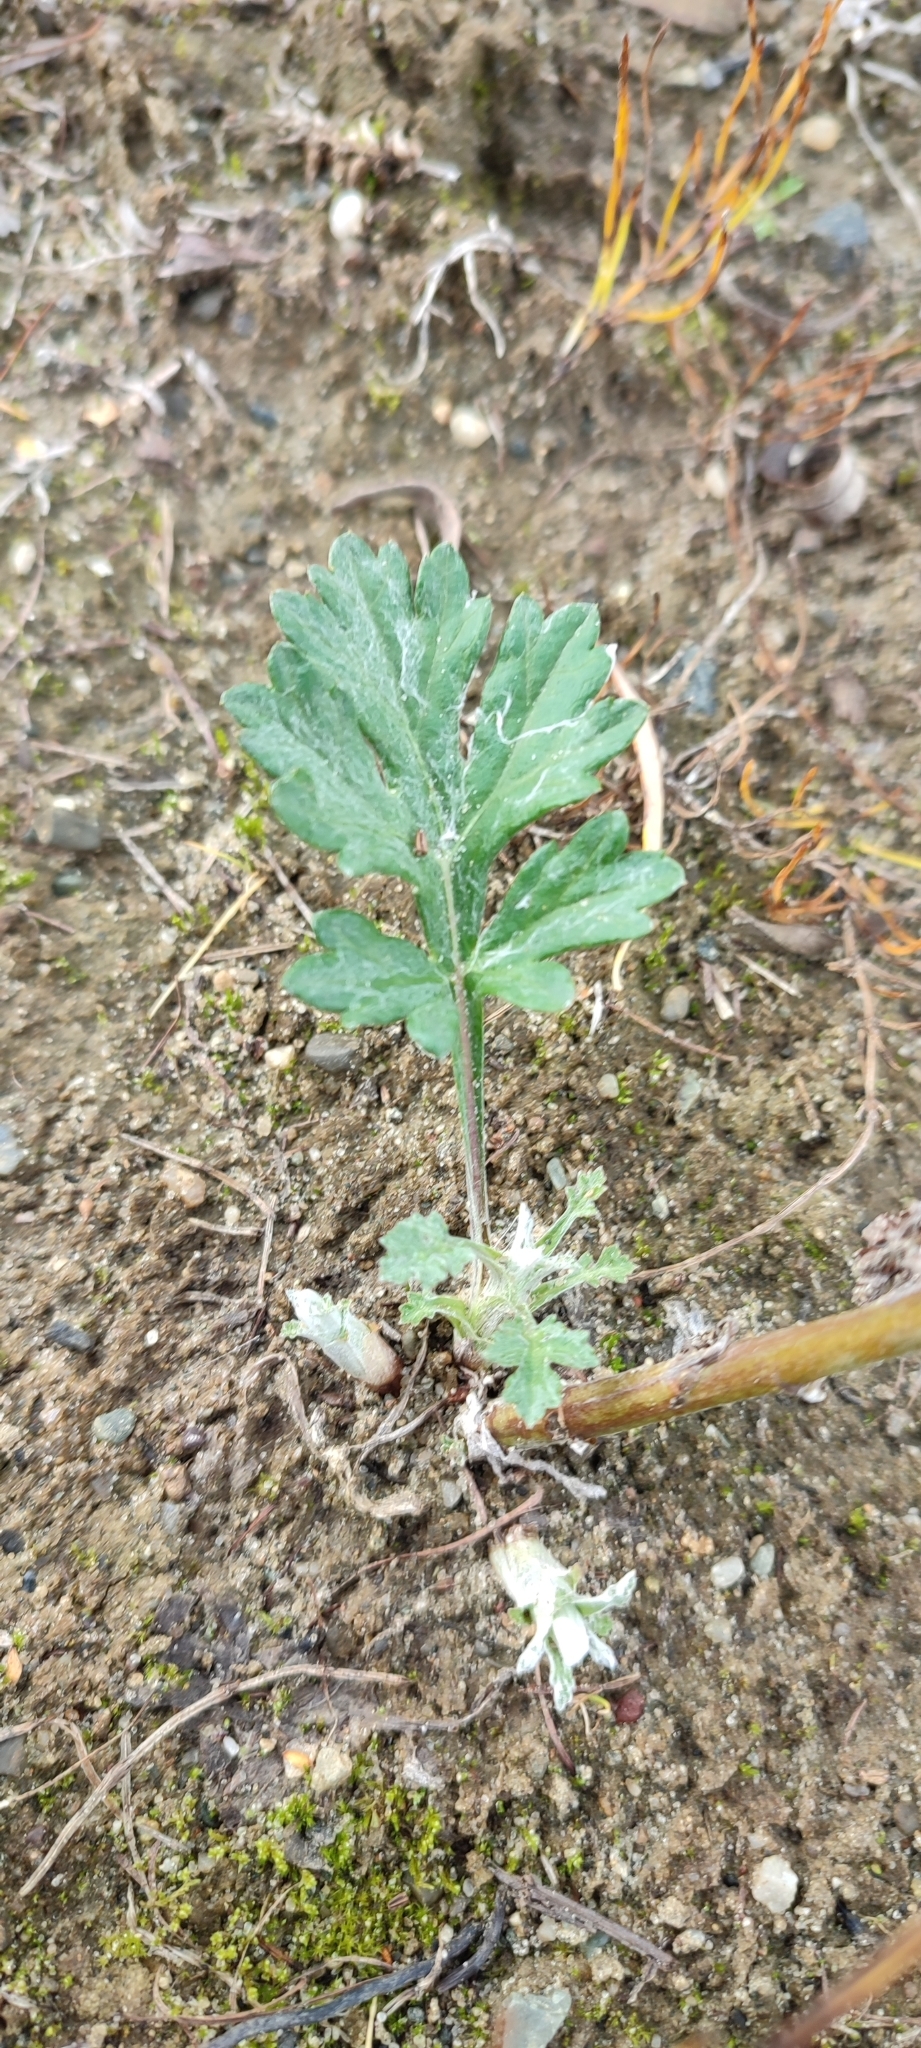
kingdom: Plantae
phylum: Tracheophyta
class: Magnoliopsida
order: Asterales
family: Asteraceae
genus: Artemisia
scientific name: Artemisia tilesii
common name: Aleutian mugwort
